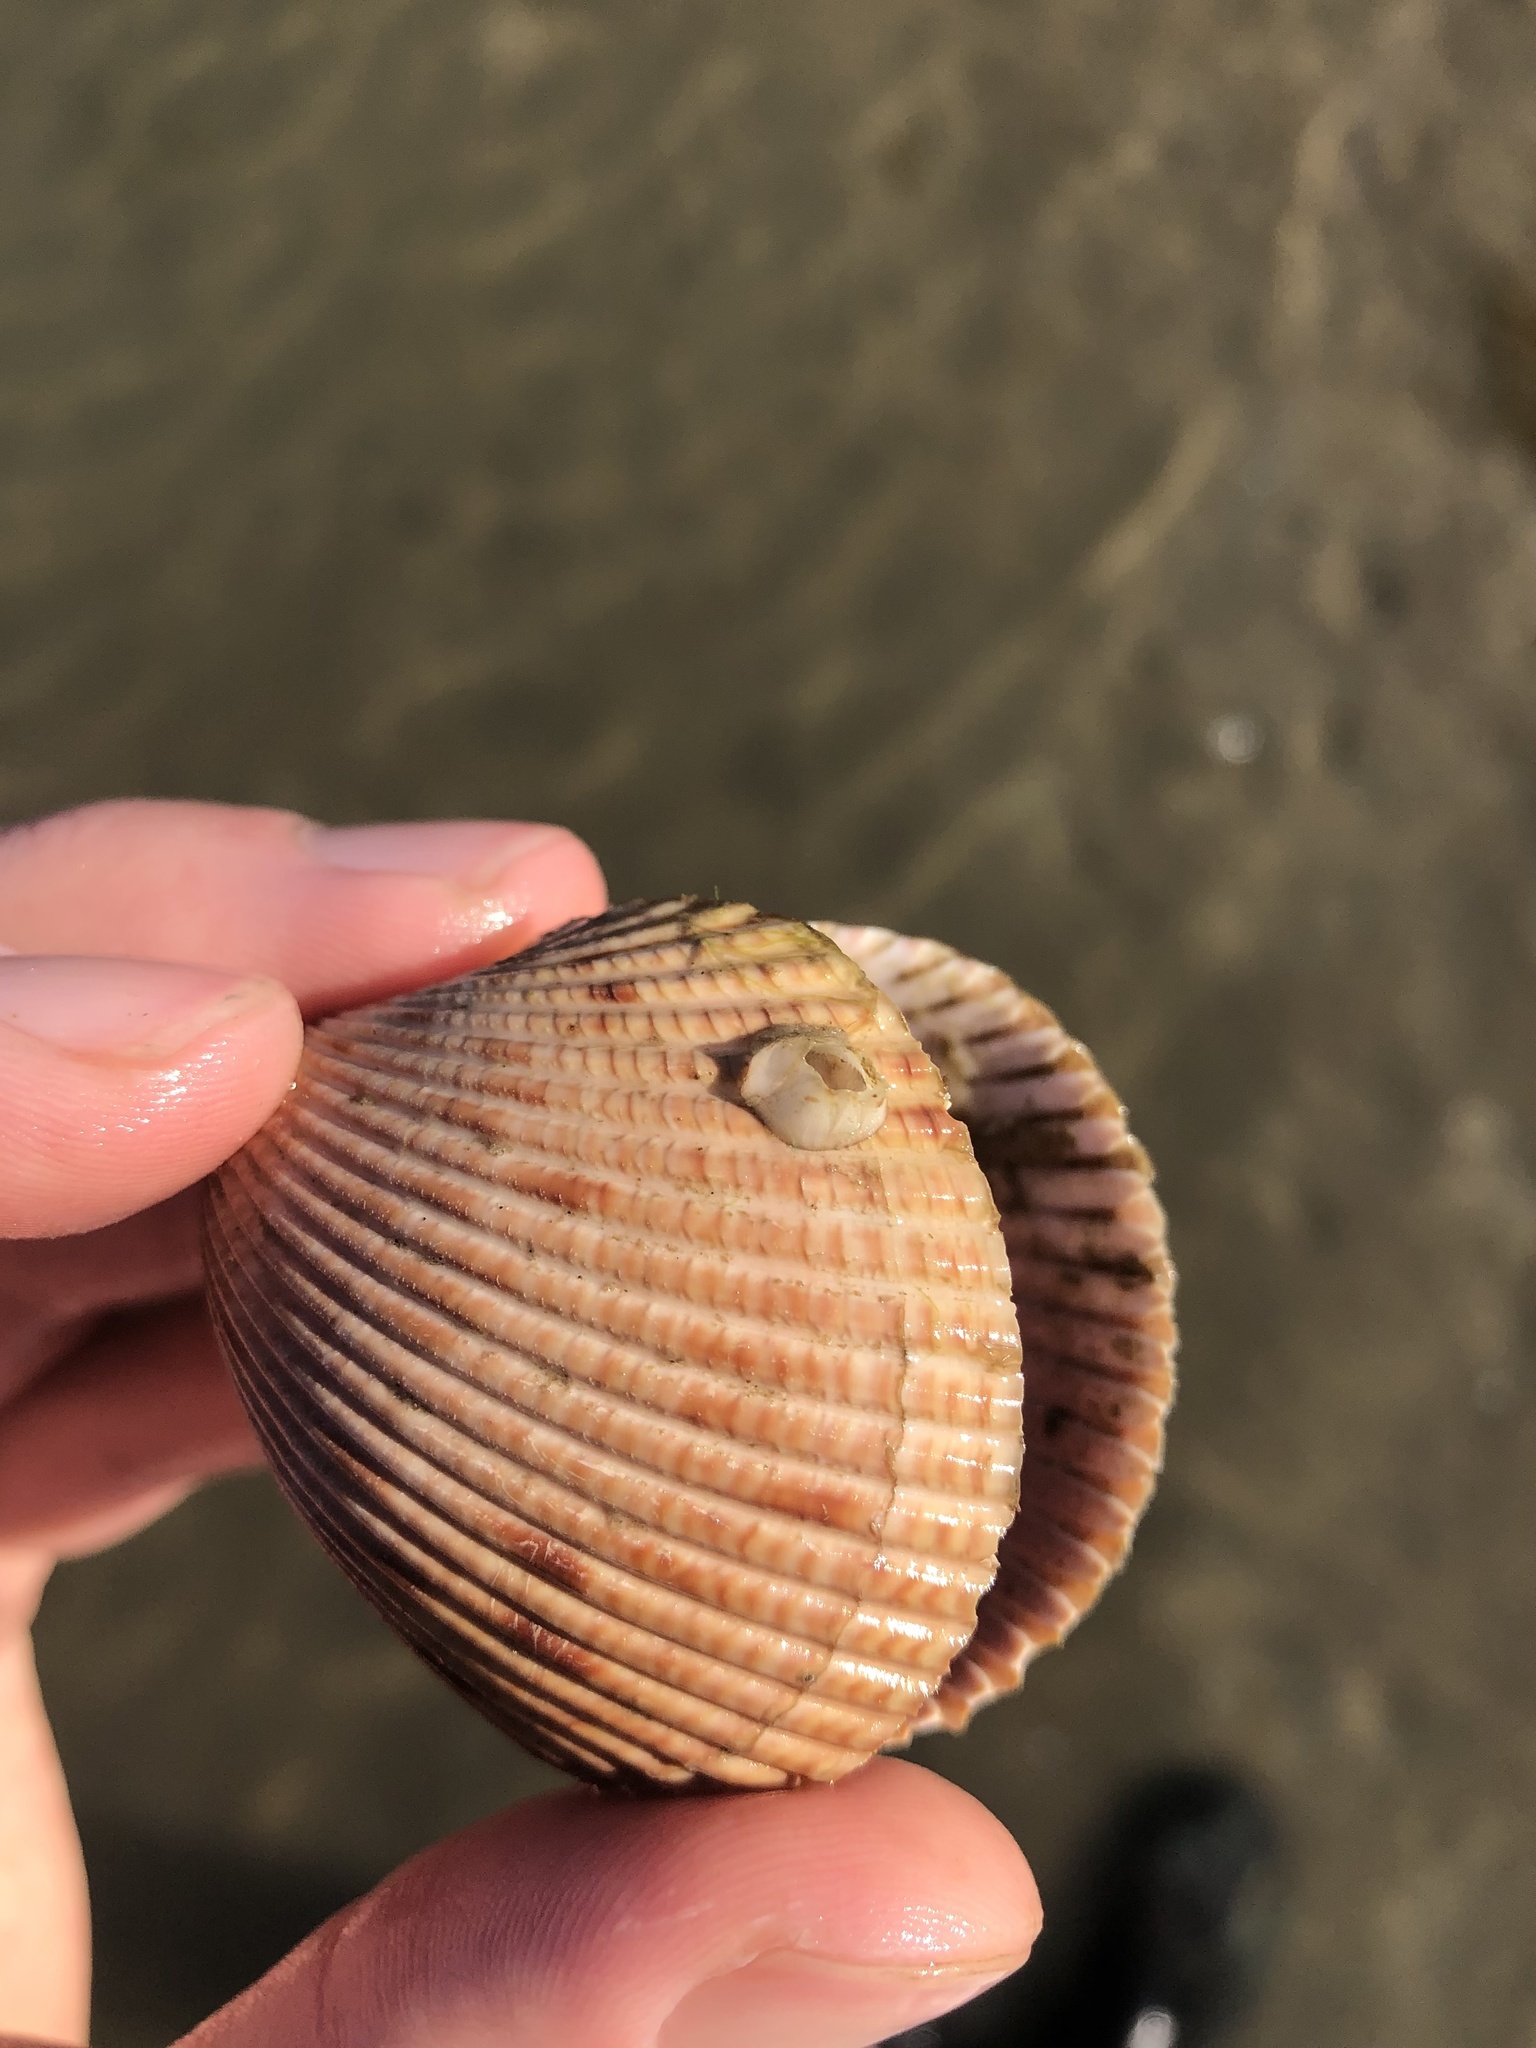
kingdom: Animalia
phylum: Arthropoda
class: Maxillopoda
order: Sessilia
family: Balanidae
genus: Amphibalanus
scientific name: Amphibalanus improvisus
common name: Bay barnacle
